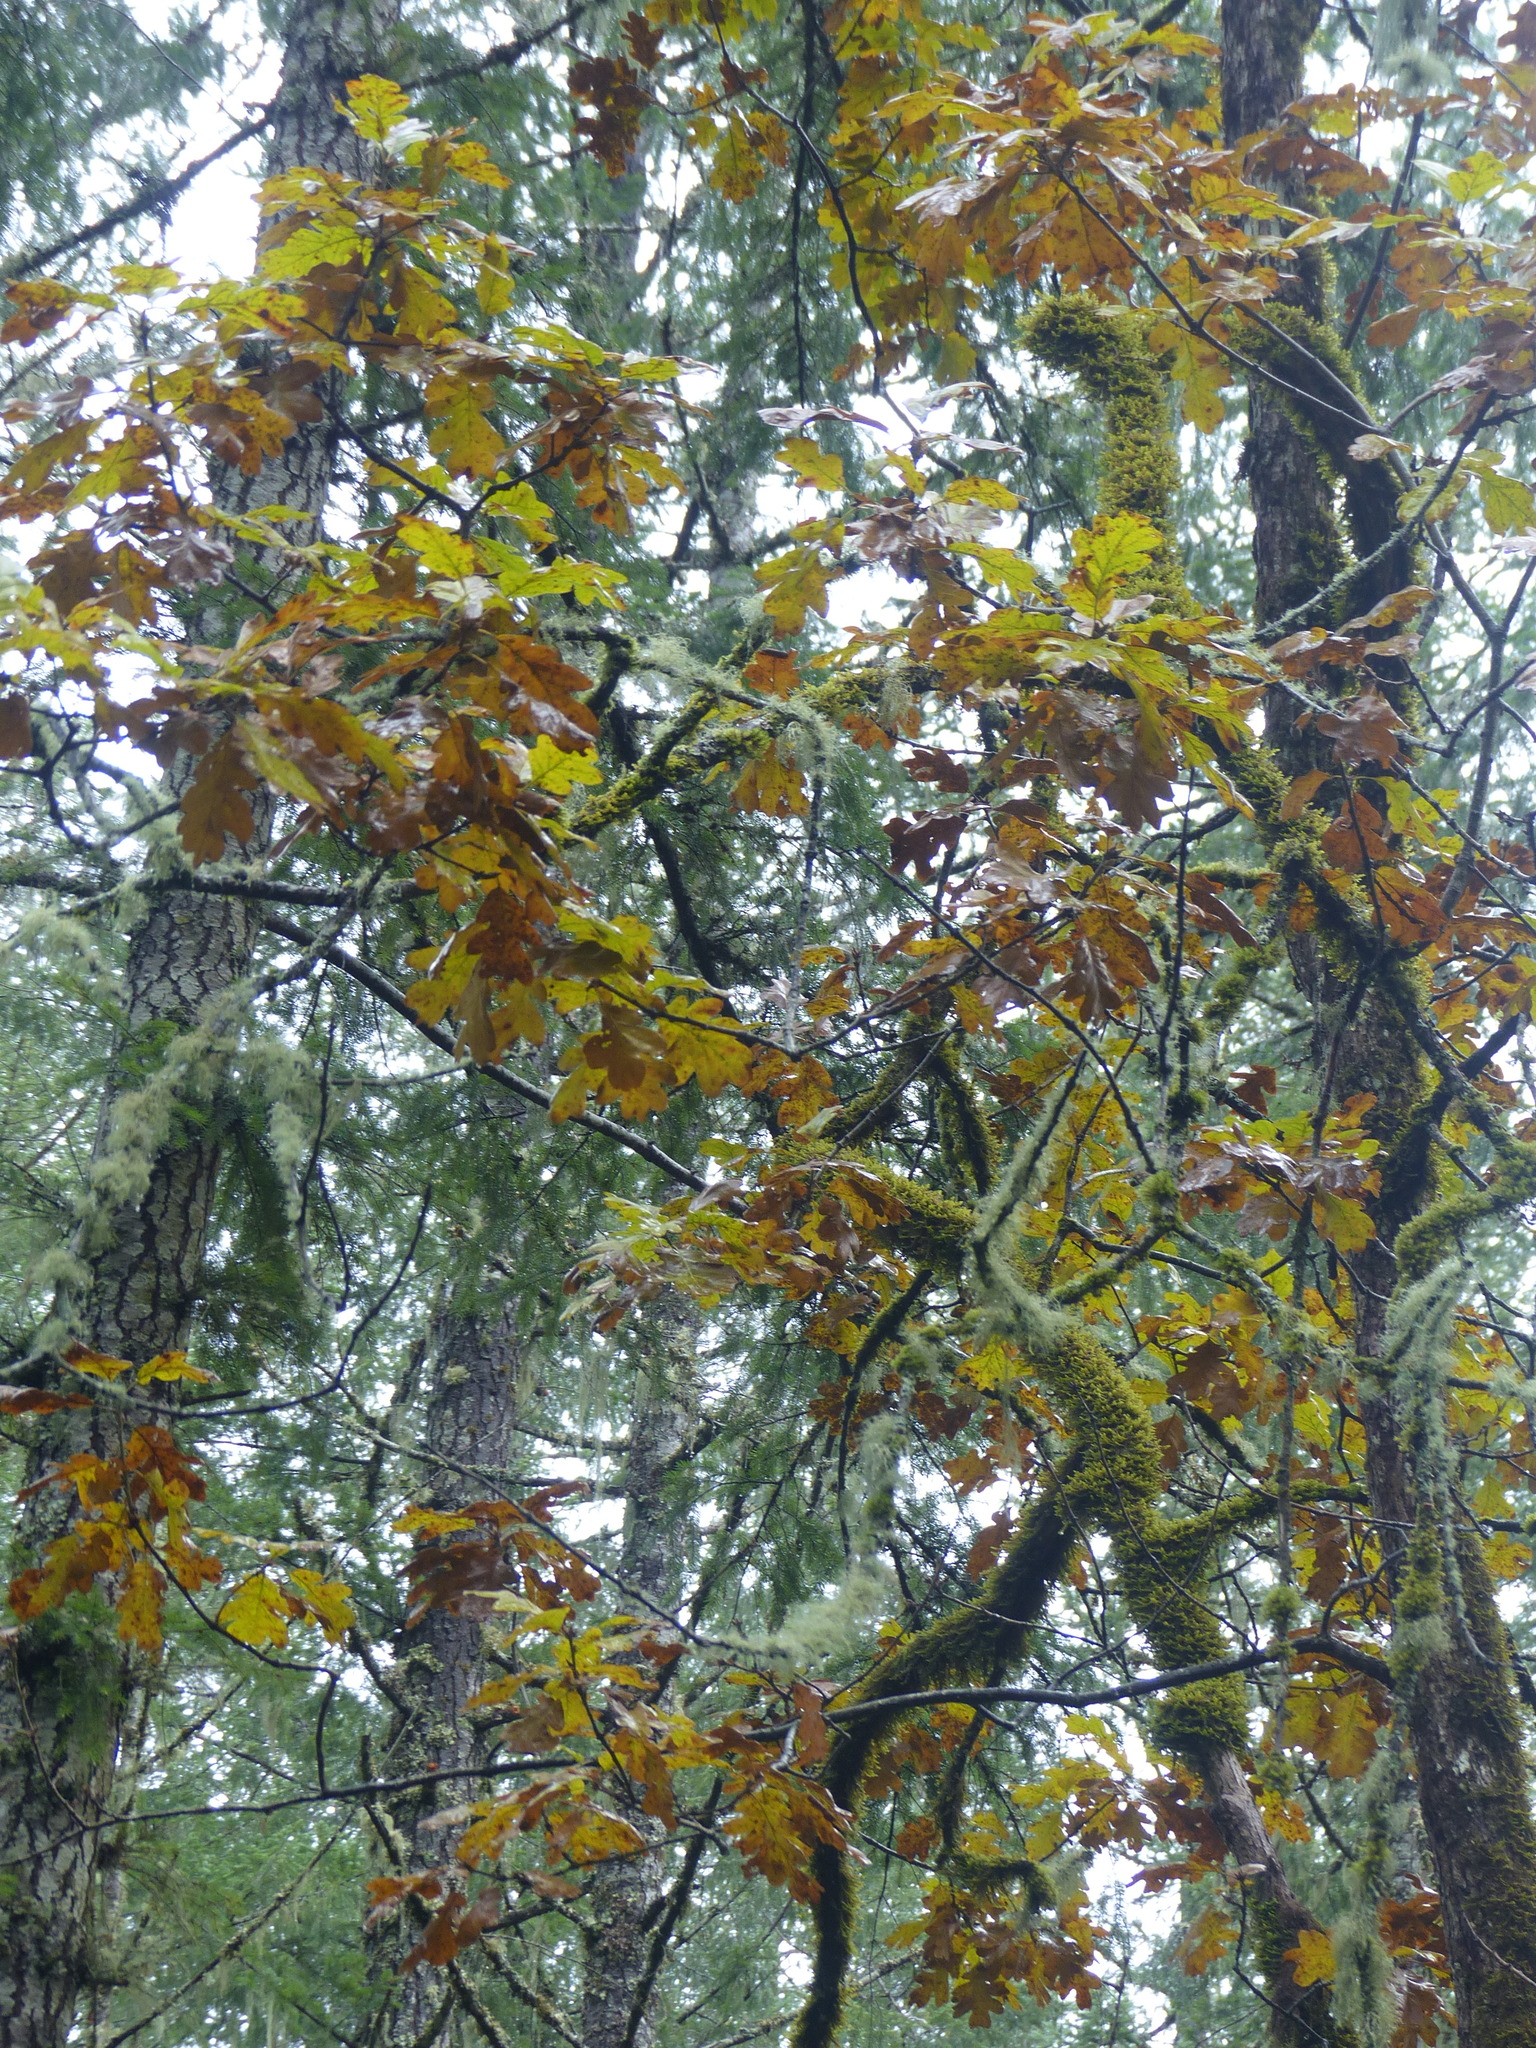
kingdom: Plantae
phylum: Tracheophyta
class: Magnoliopsida
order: Fagales
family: Fagaceae
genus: Quercus
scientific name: Quercus garryana
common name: Garry oak
